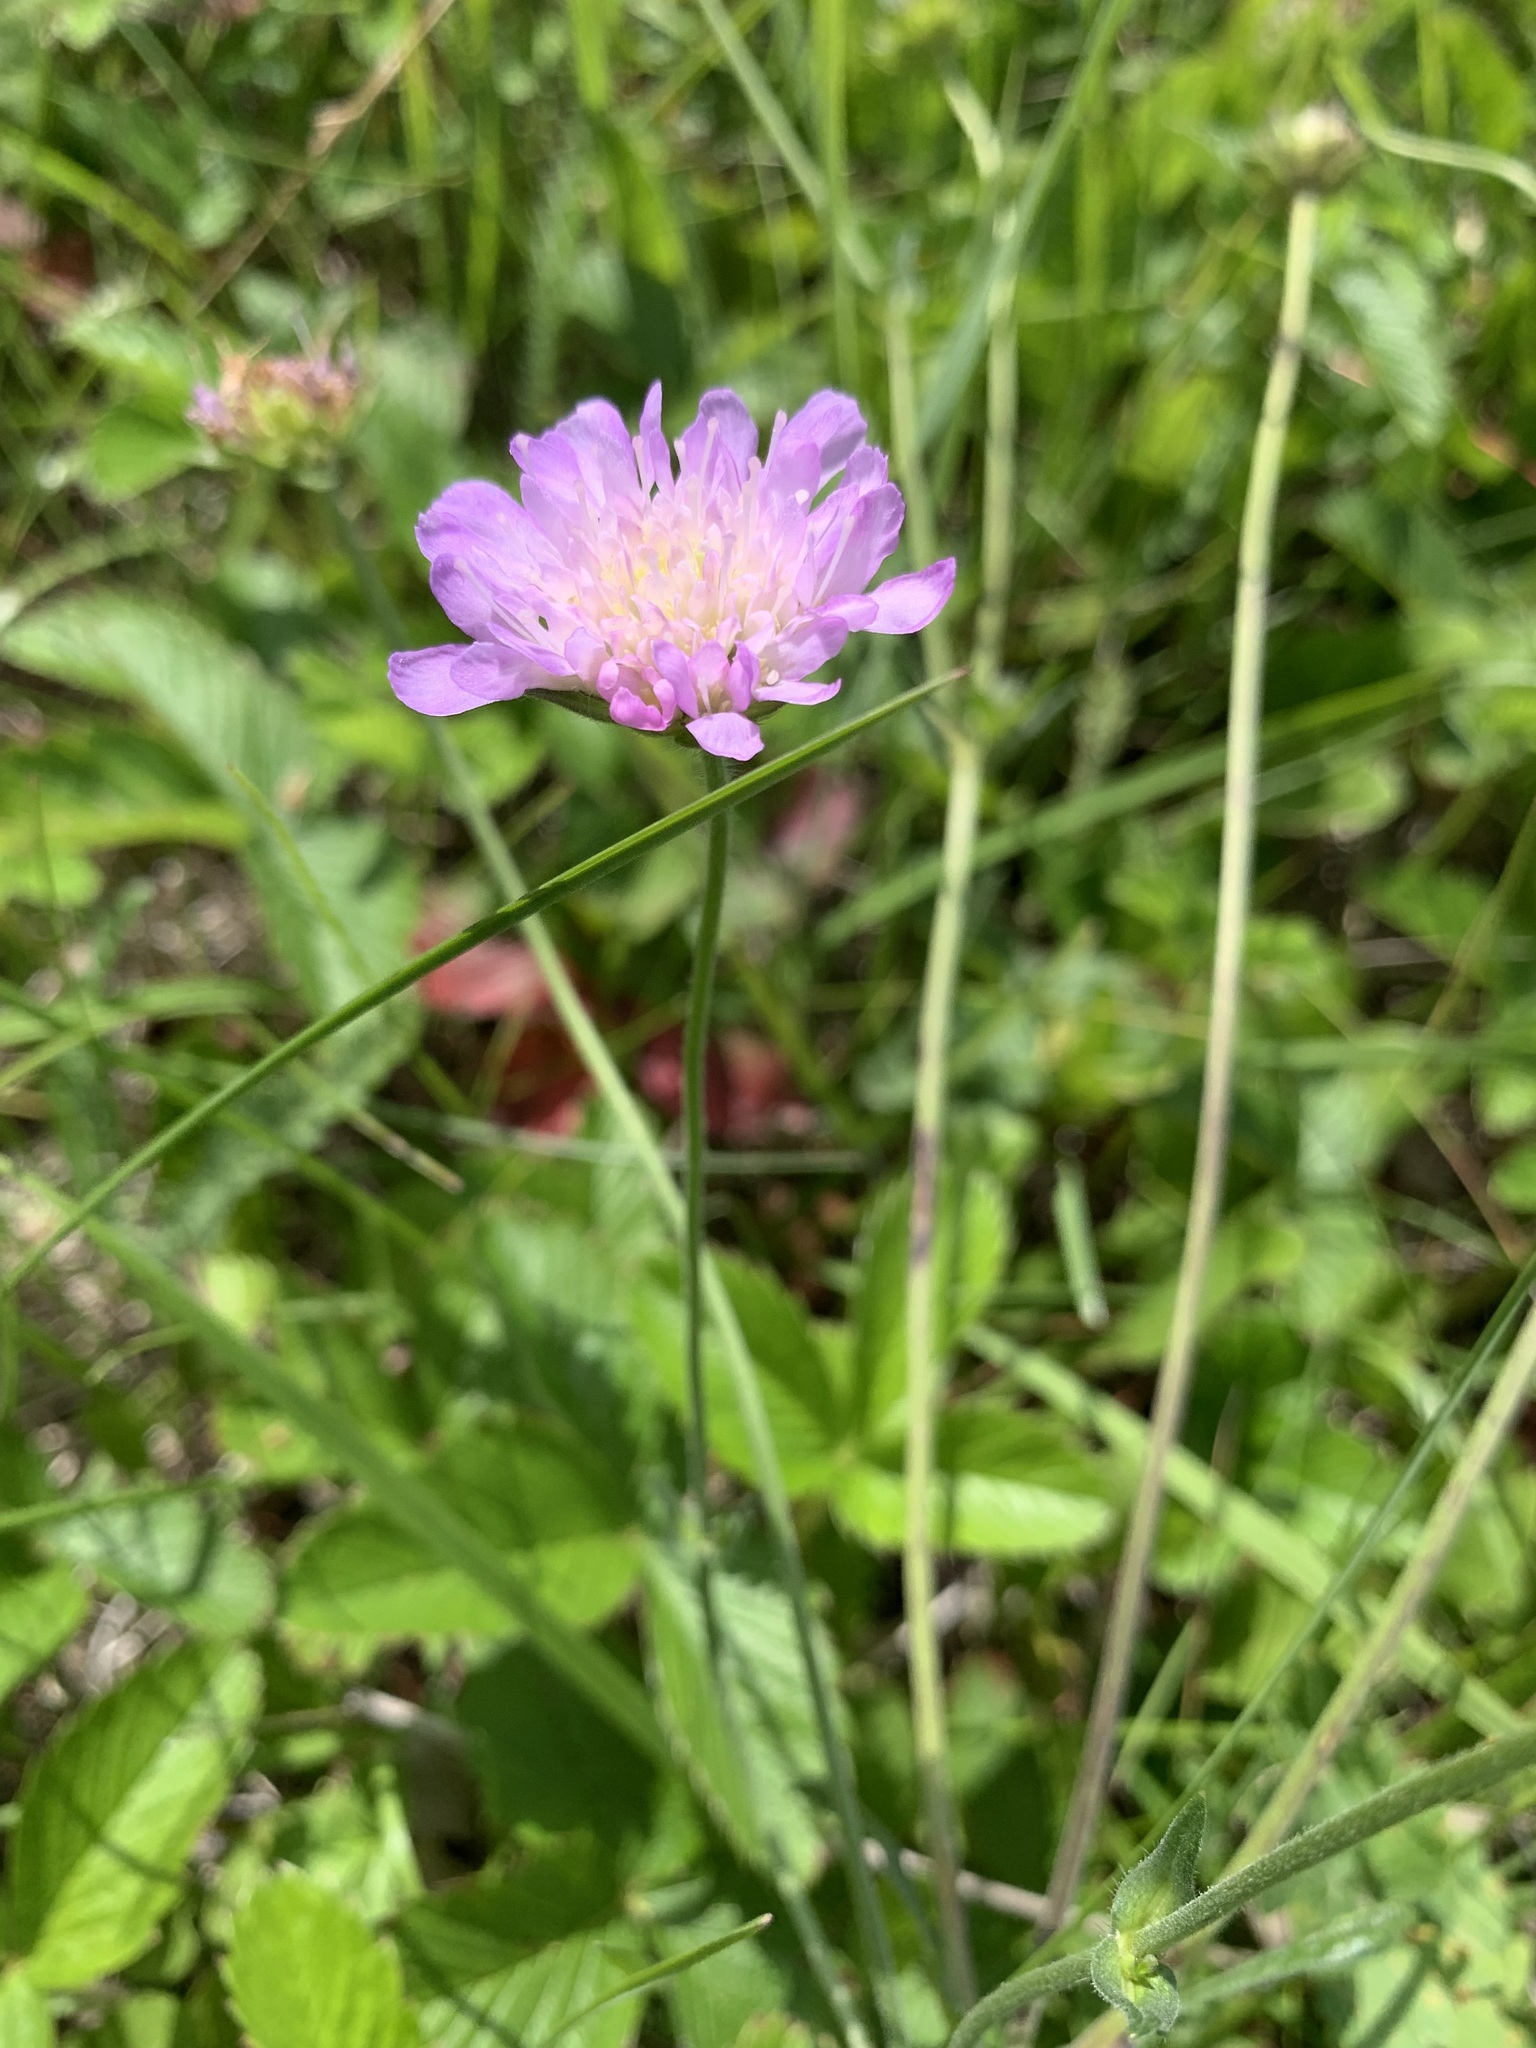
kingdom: Plantae
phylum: Tracheophyta
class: Magnoliopsida
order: Dipsacales
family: Caprifoliaceae
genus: Knautia
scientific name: Knautia arvensis
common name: Field scabiosa
